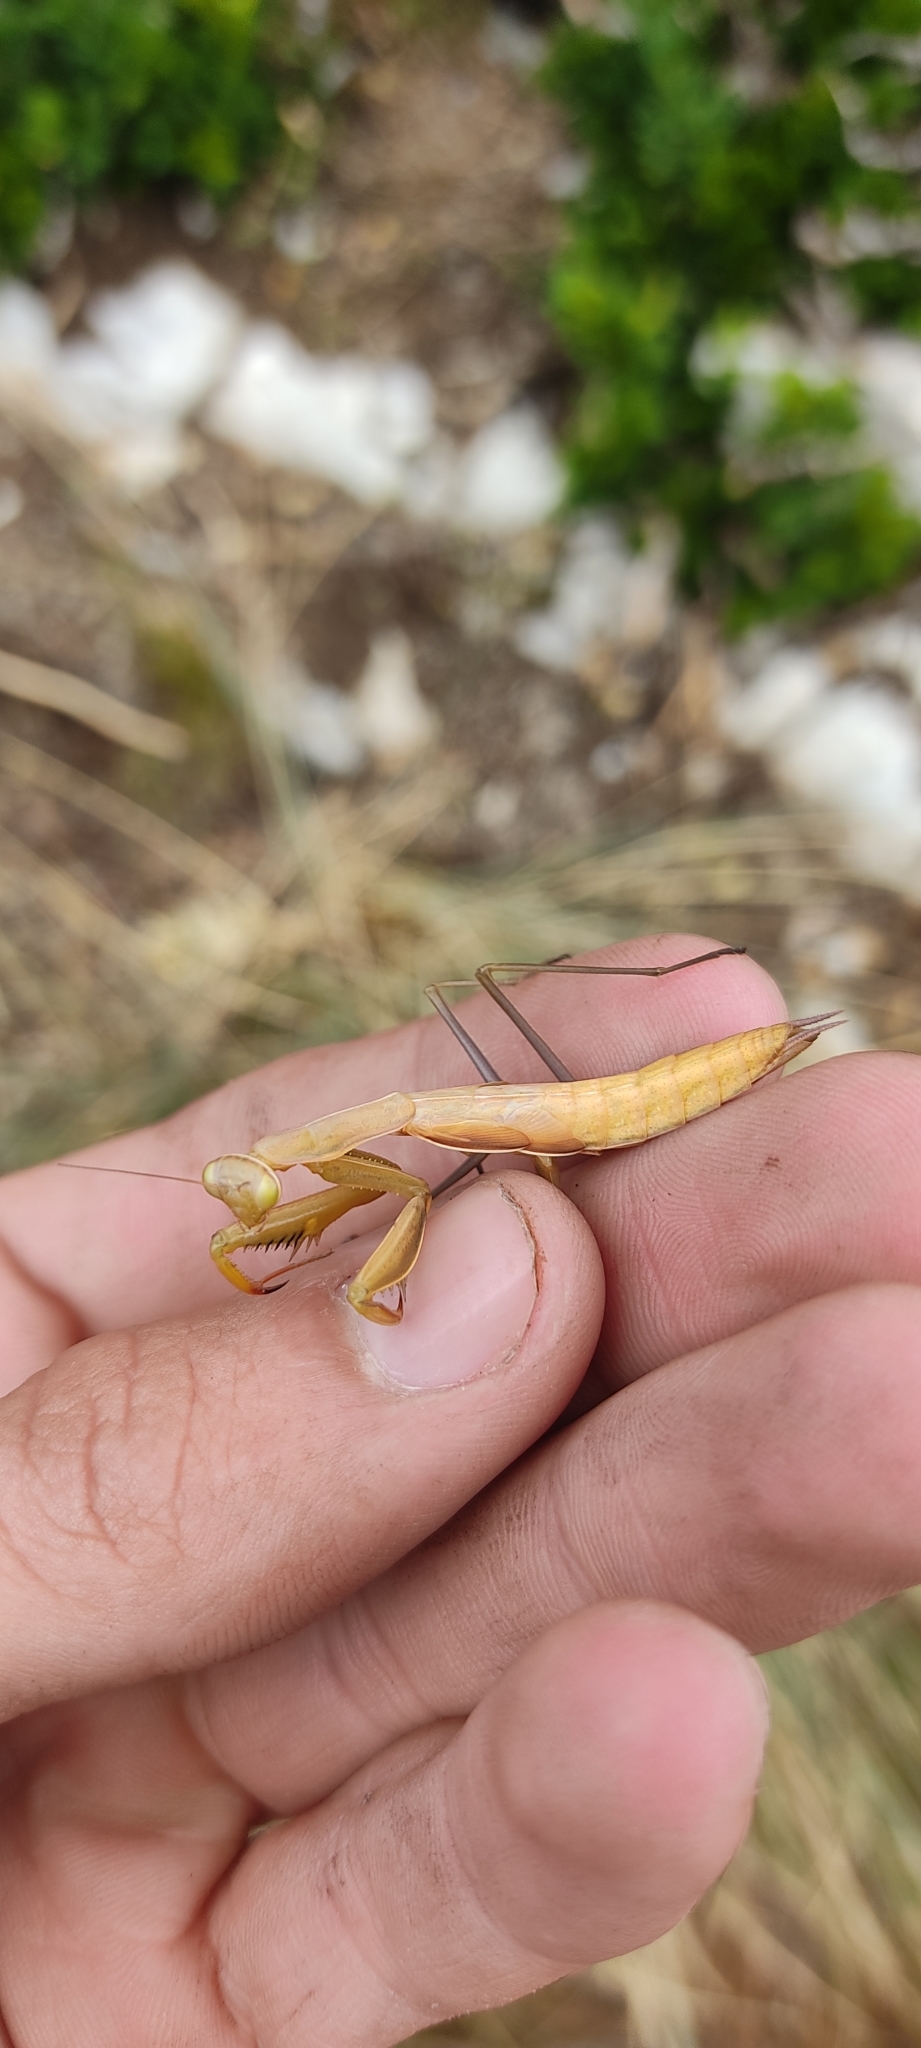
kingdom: Animalia
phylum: Arthropoda
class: Insecta
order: Mantodea
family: Mantidae
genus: Mantis
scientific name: Mantis religiosa
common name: Praying mantis
